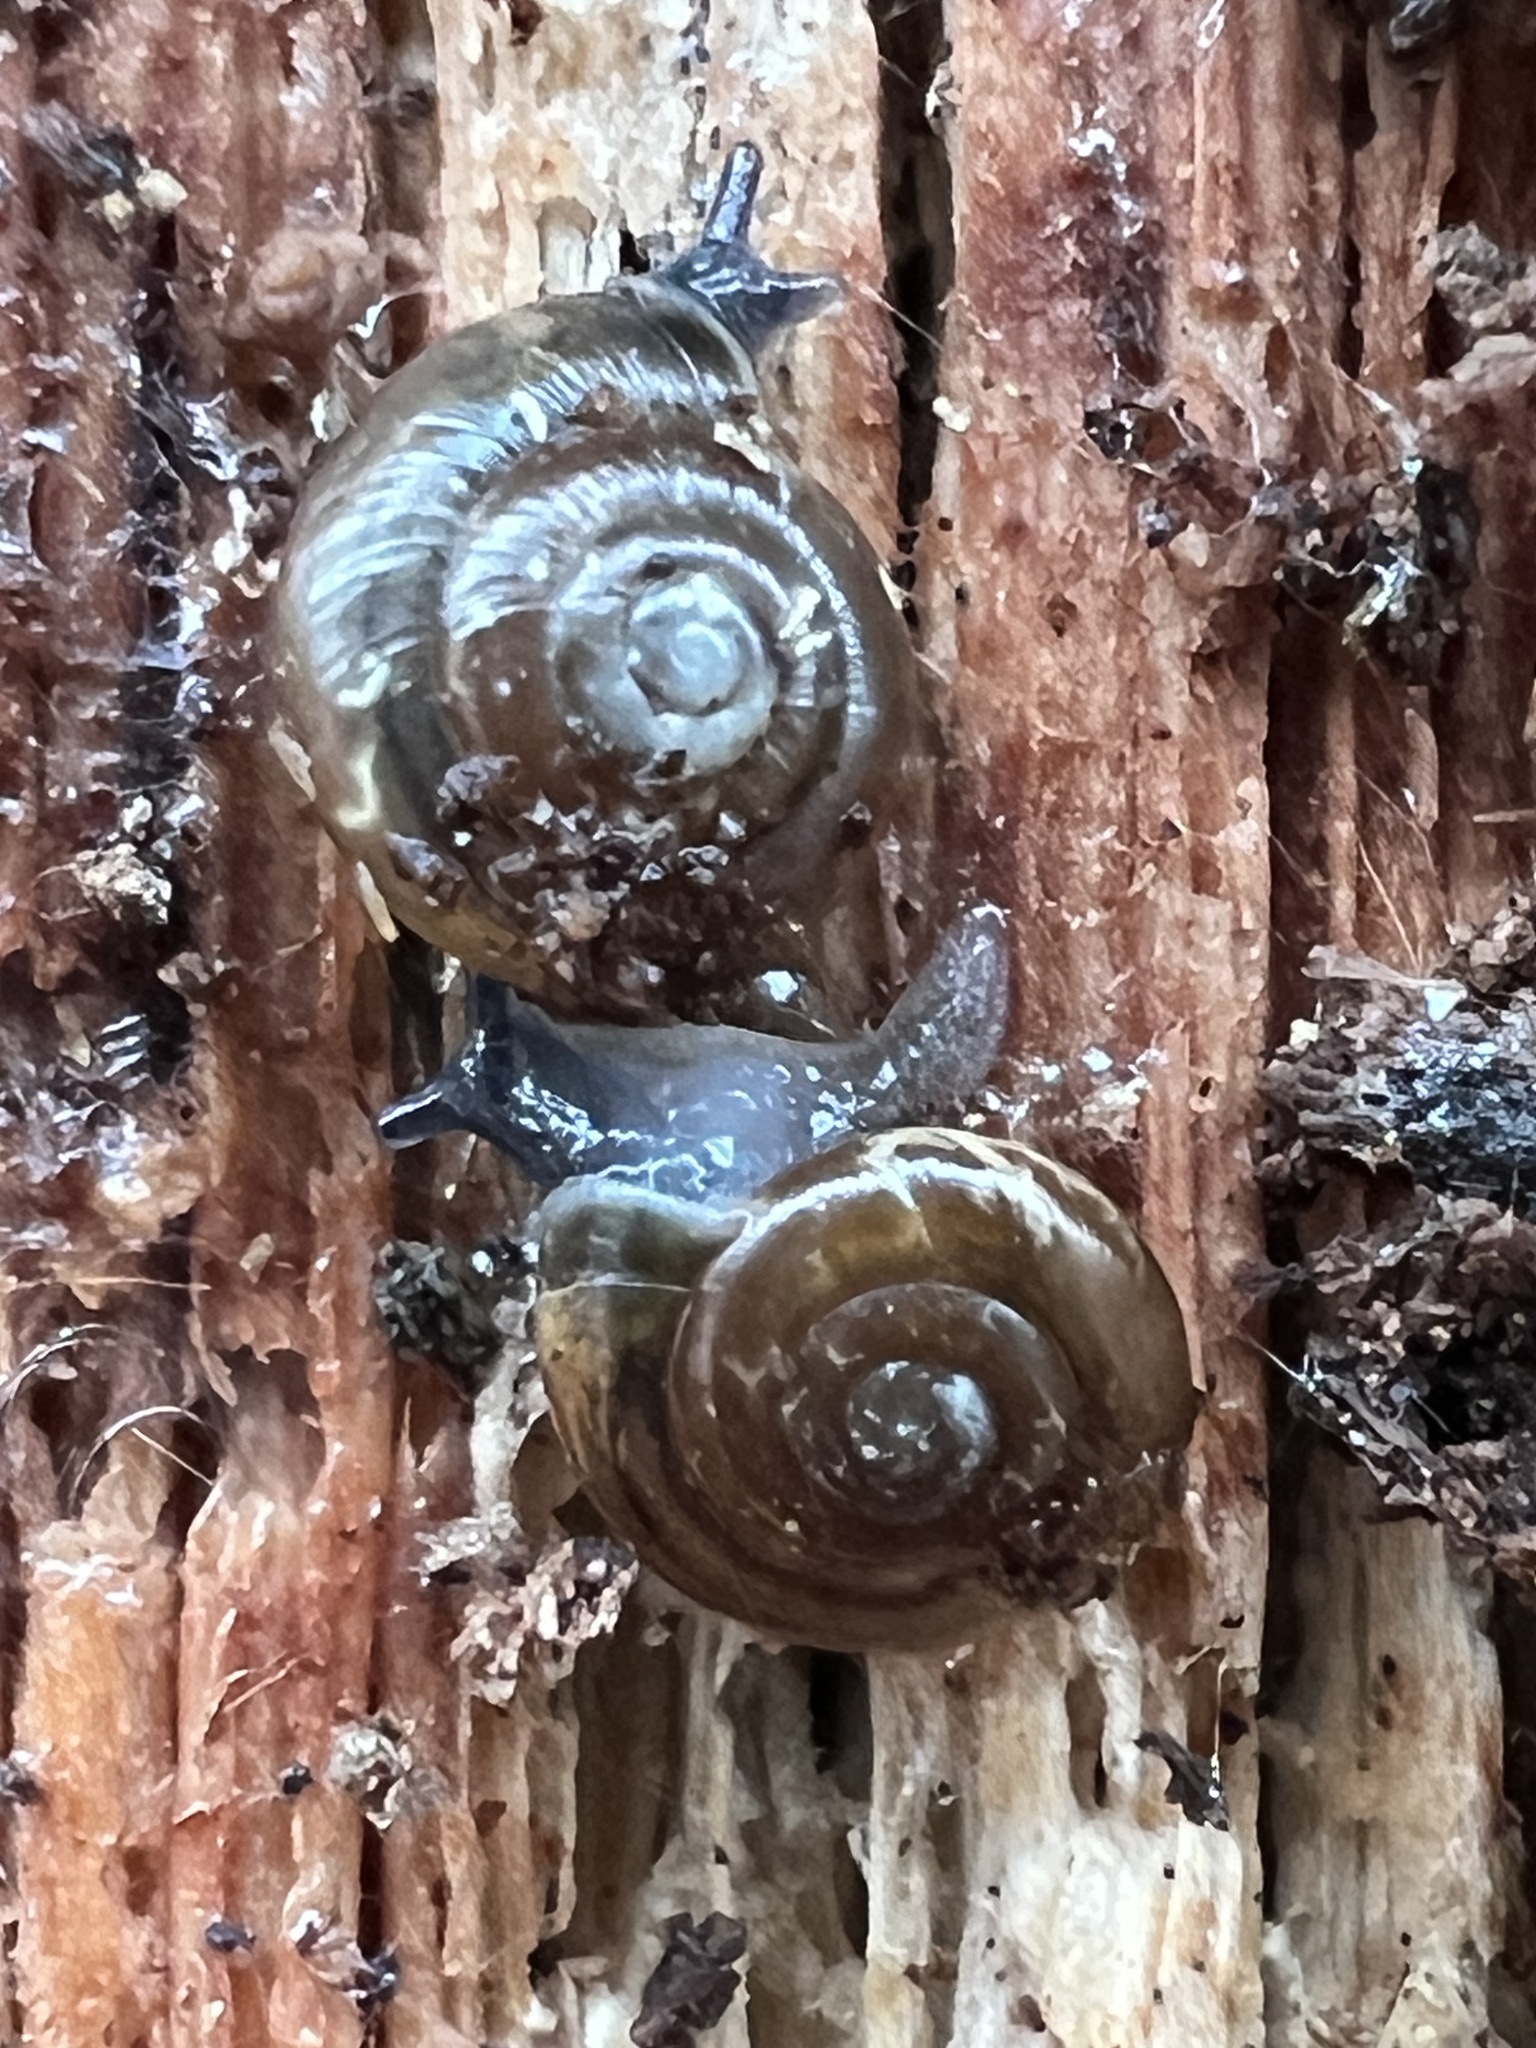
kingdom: Animalia
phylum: Mollusca
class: Gastropoda
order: Stylommatophora
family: Gastrodontidae
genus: Zonitoides
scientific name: Zonitoides arboreus
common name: Quick gloss
